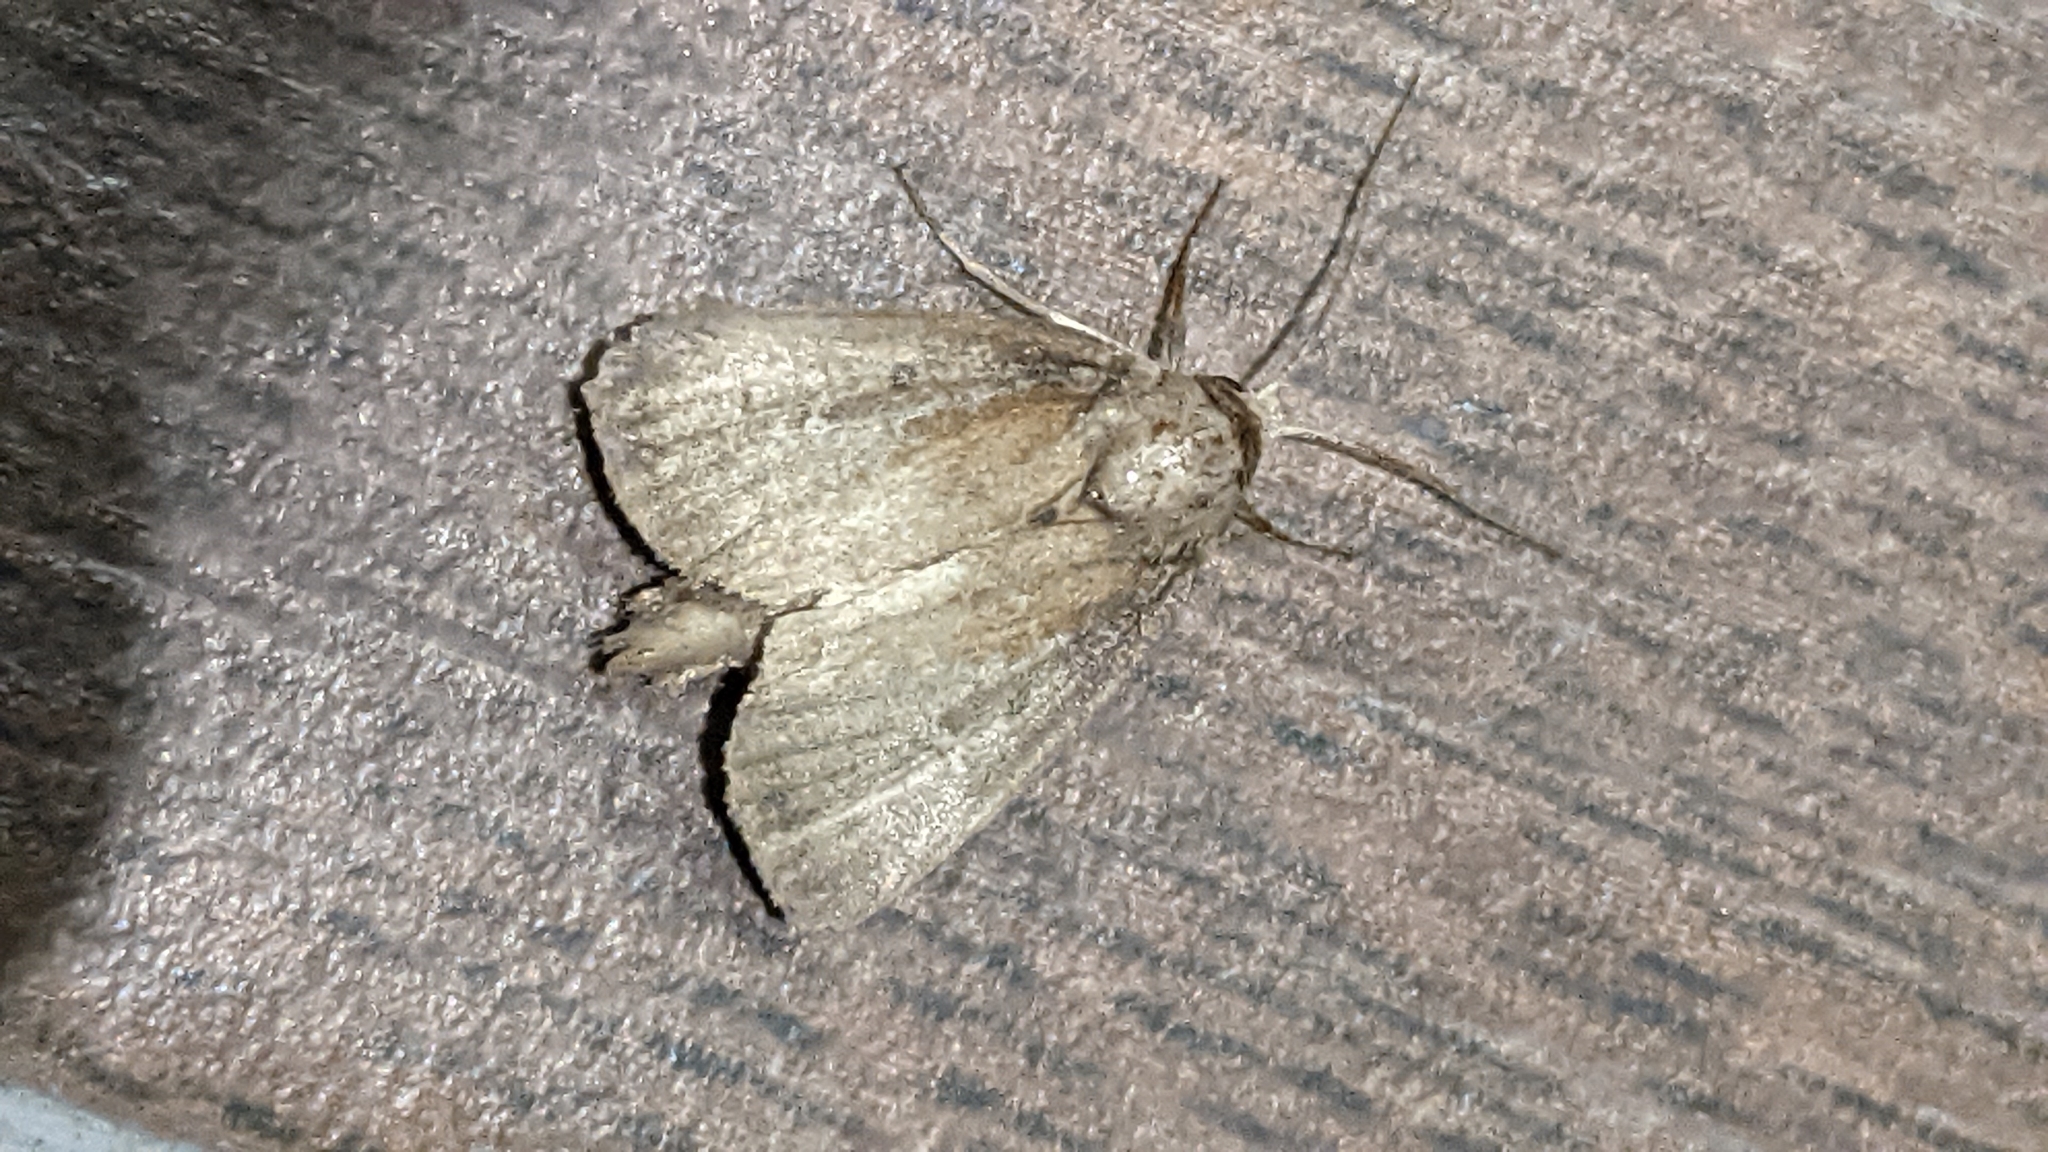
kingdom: Animalia
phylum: Arthropoda
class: Insecta
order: Lepidoptera
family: Noctuidae
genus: Photedes
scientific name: Photedes fluxa
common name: Mere wainscot
